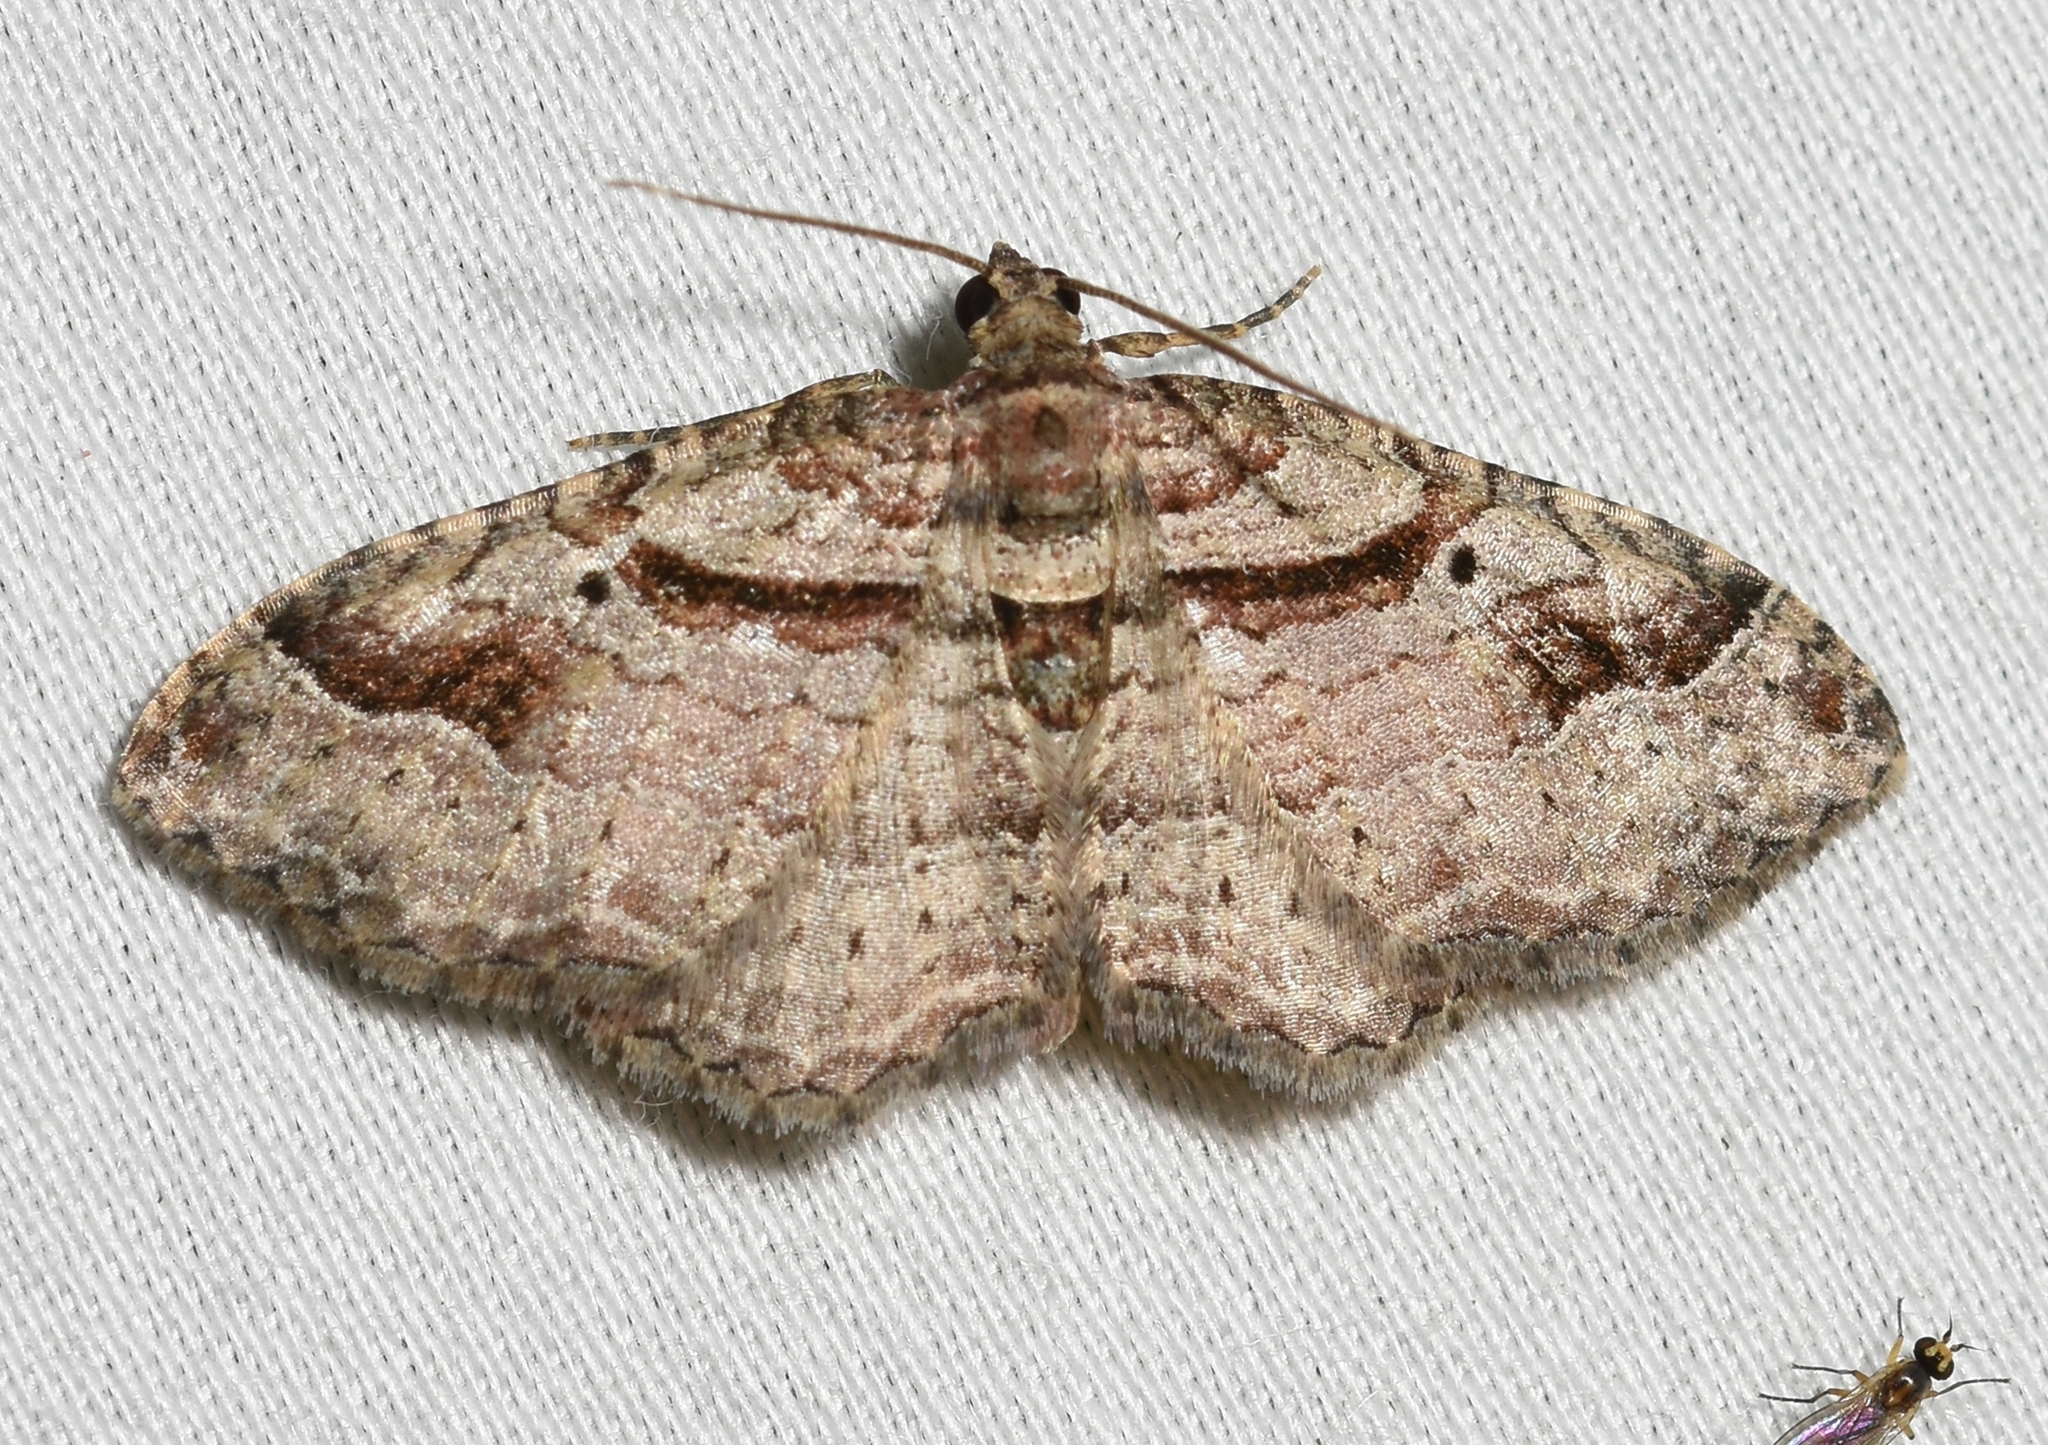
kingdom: Animalia
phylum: Arthropoda
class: Insecta
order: Lepidoptera
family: Geometridae
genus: Costaconvexa
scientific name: Costaconvexa centrostrigaria
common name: Bent-line carpet
